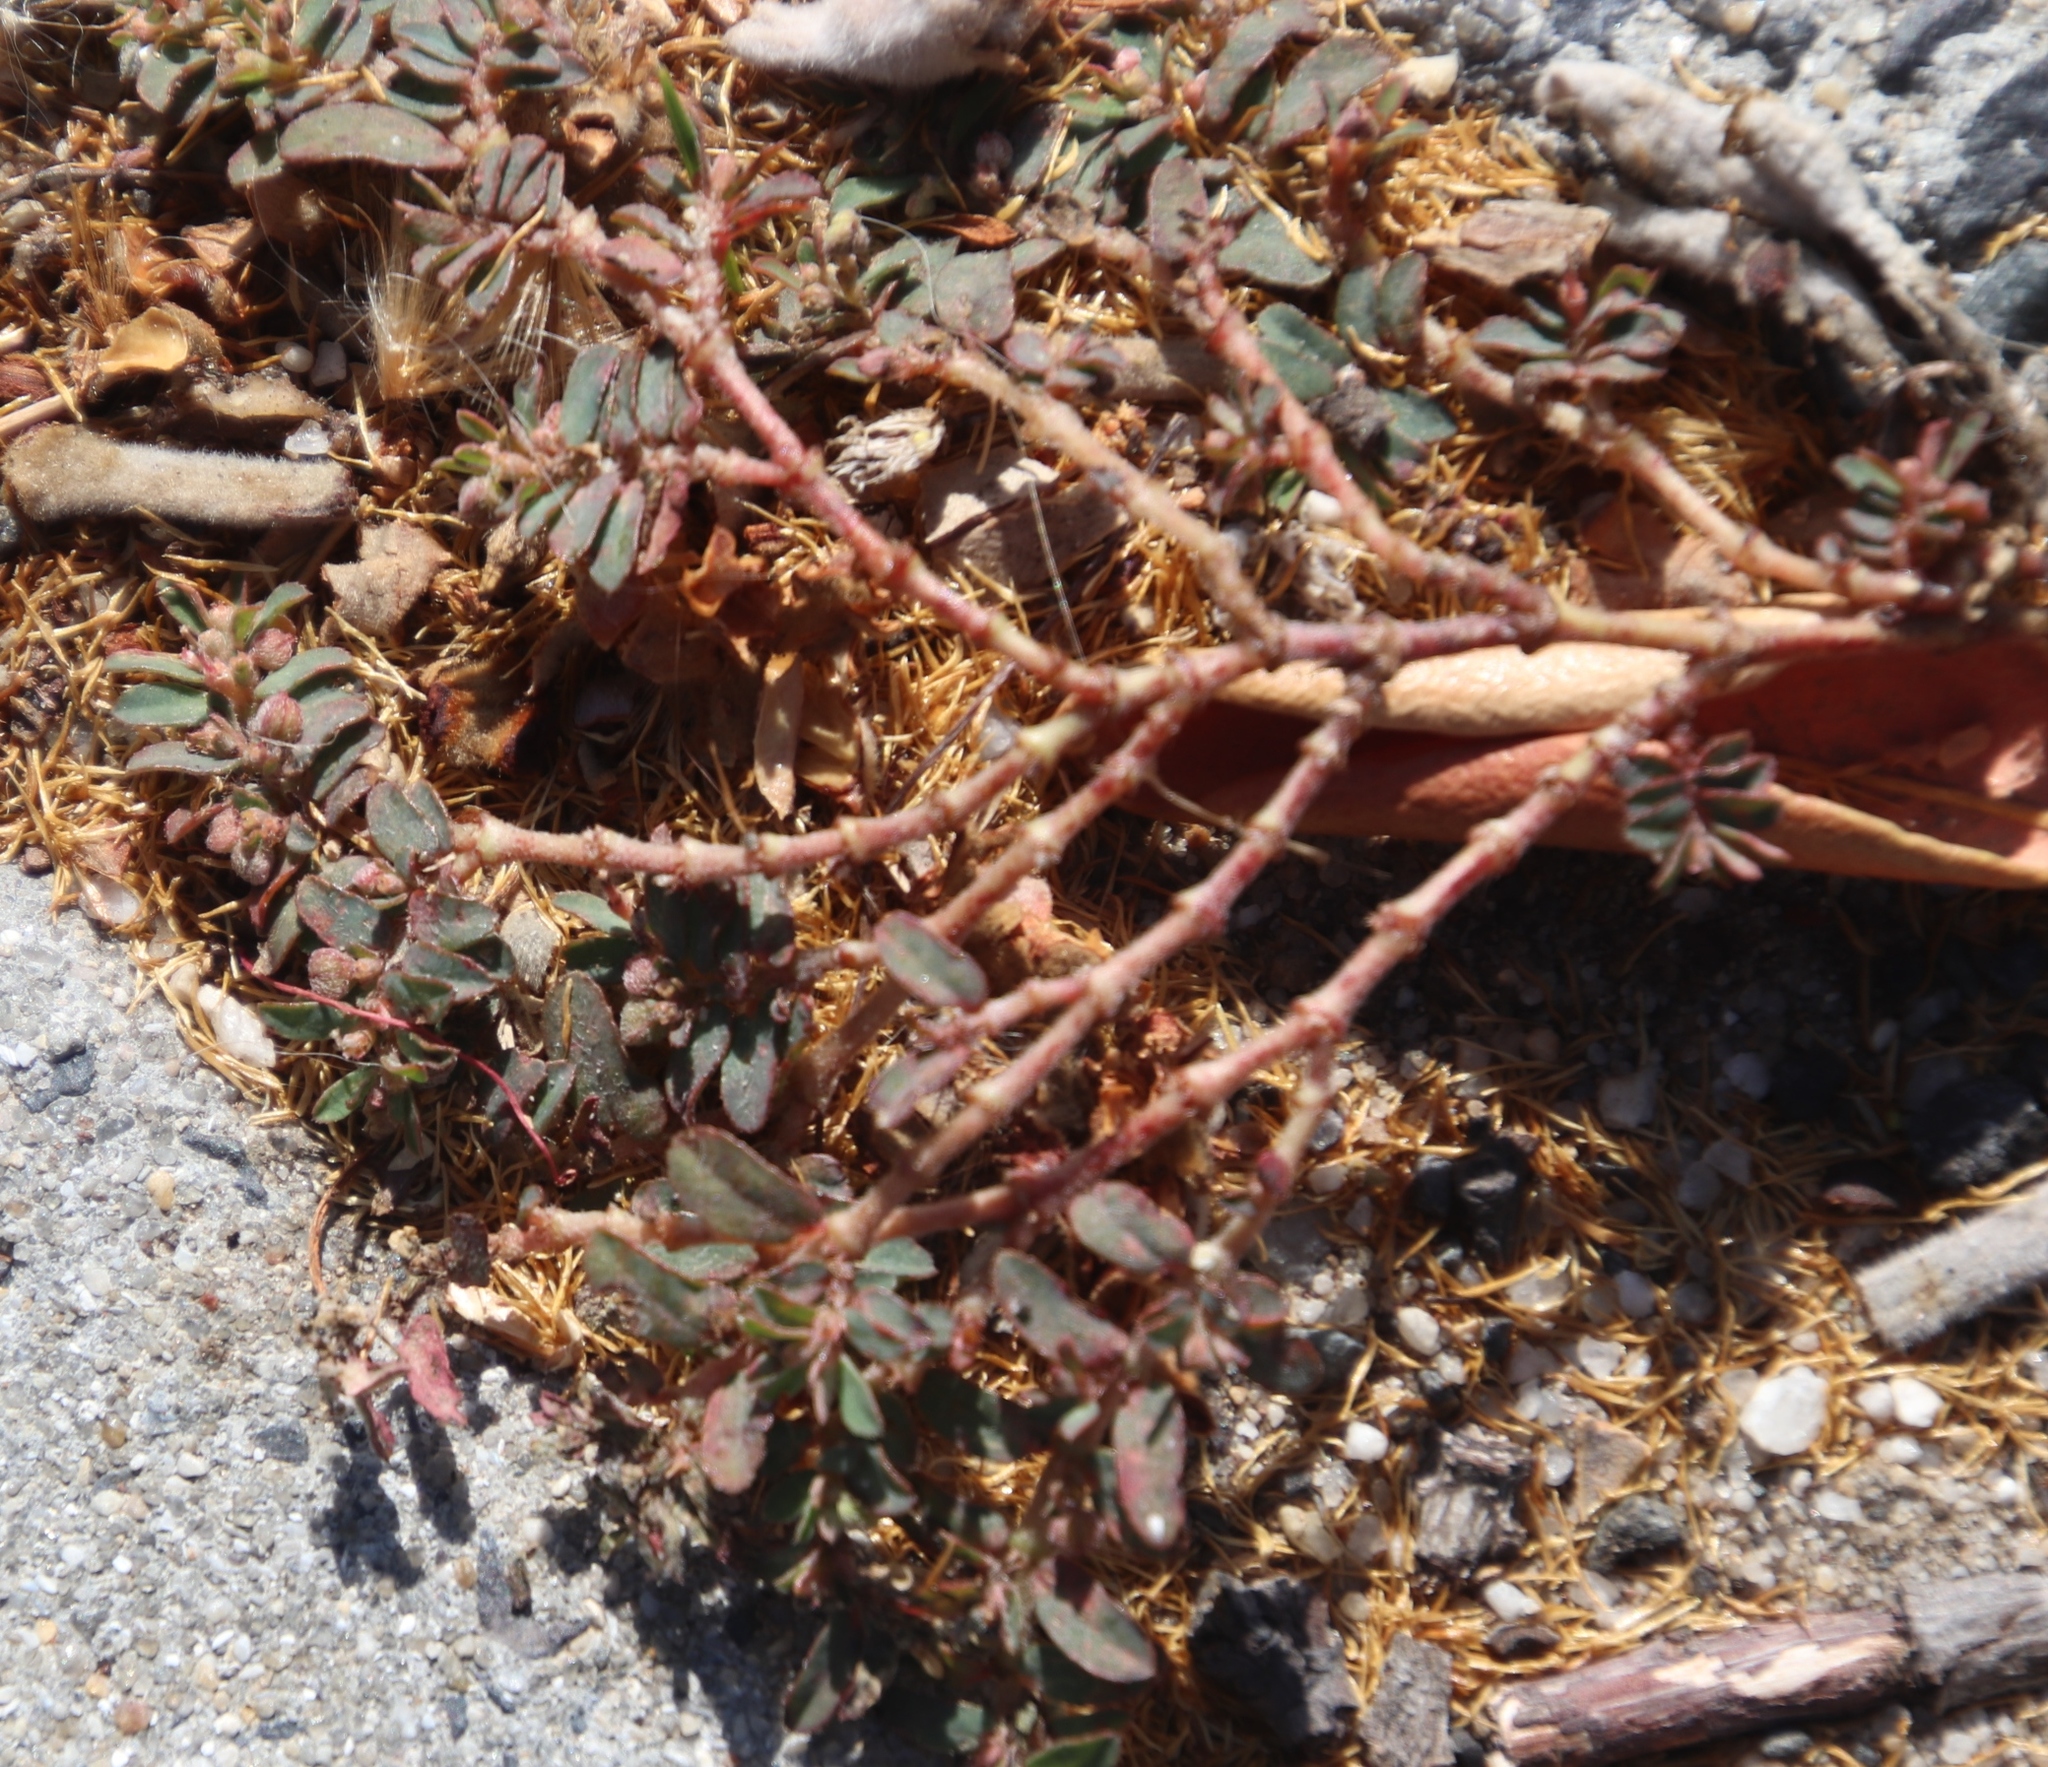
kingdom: Plantae
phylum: Tracheophyta
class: Magnoliopsida
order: Malpighiales
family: Euphorbiaceae
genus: Euphorbia
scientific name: Euphorbia maculata
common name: Spotted spurge
